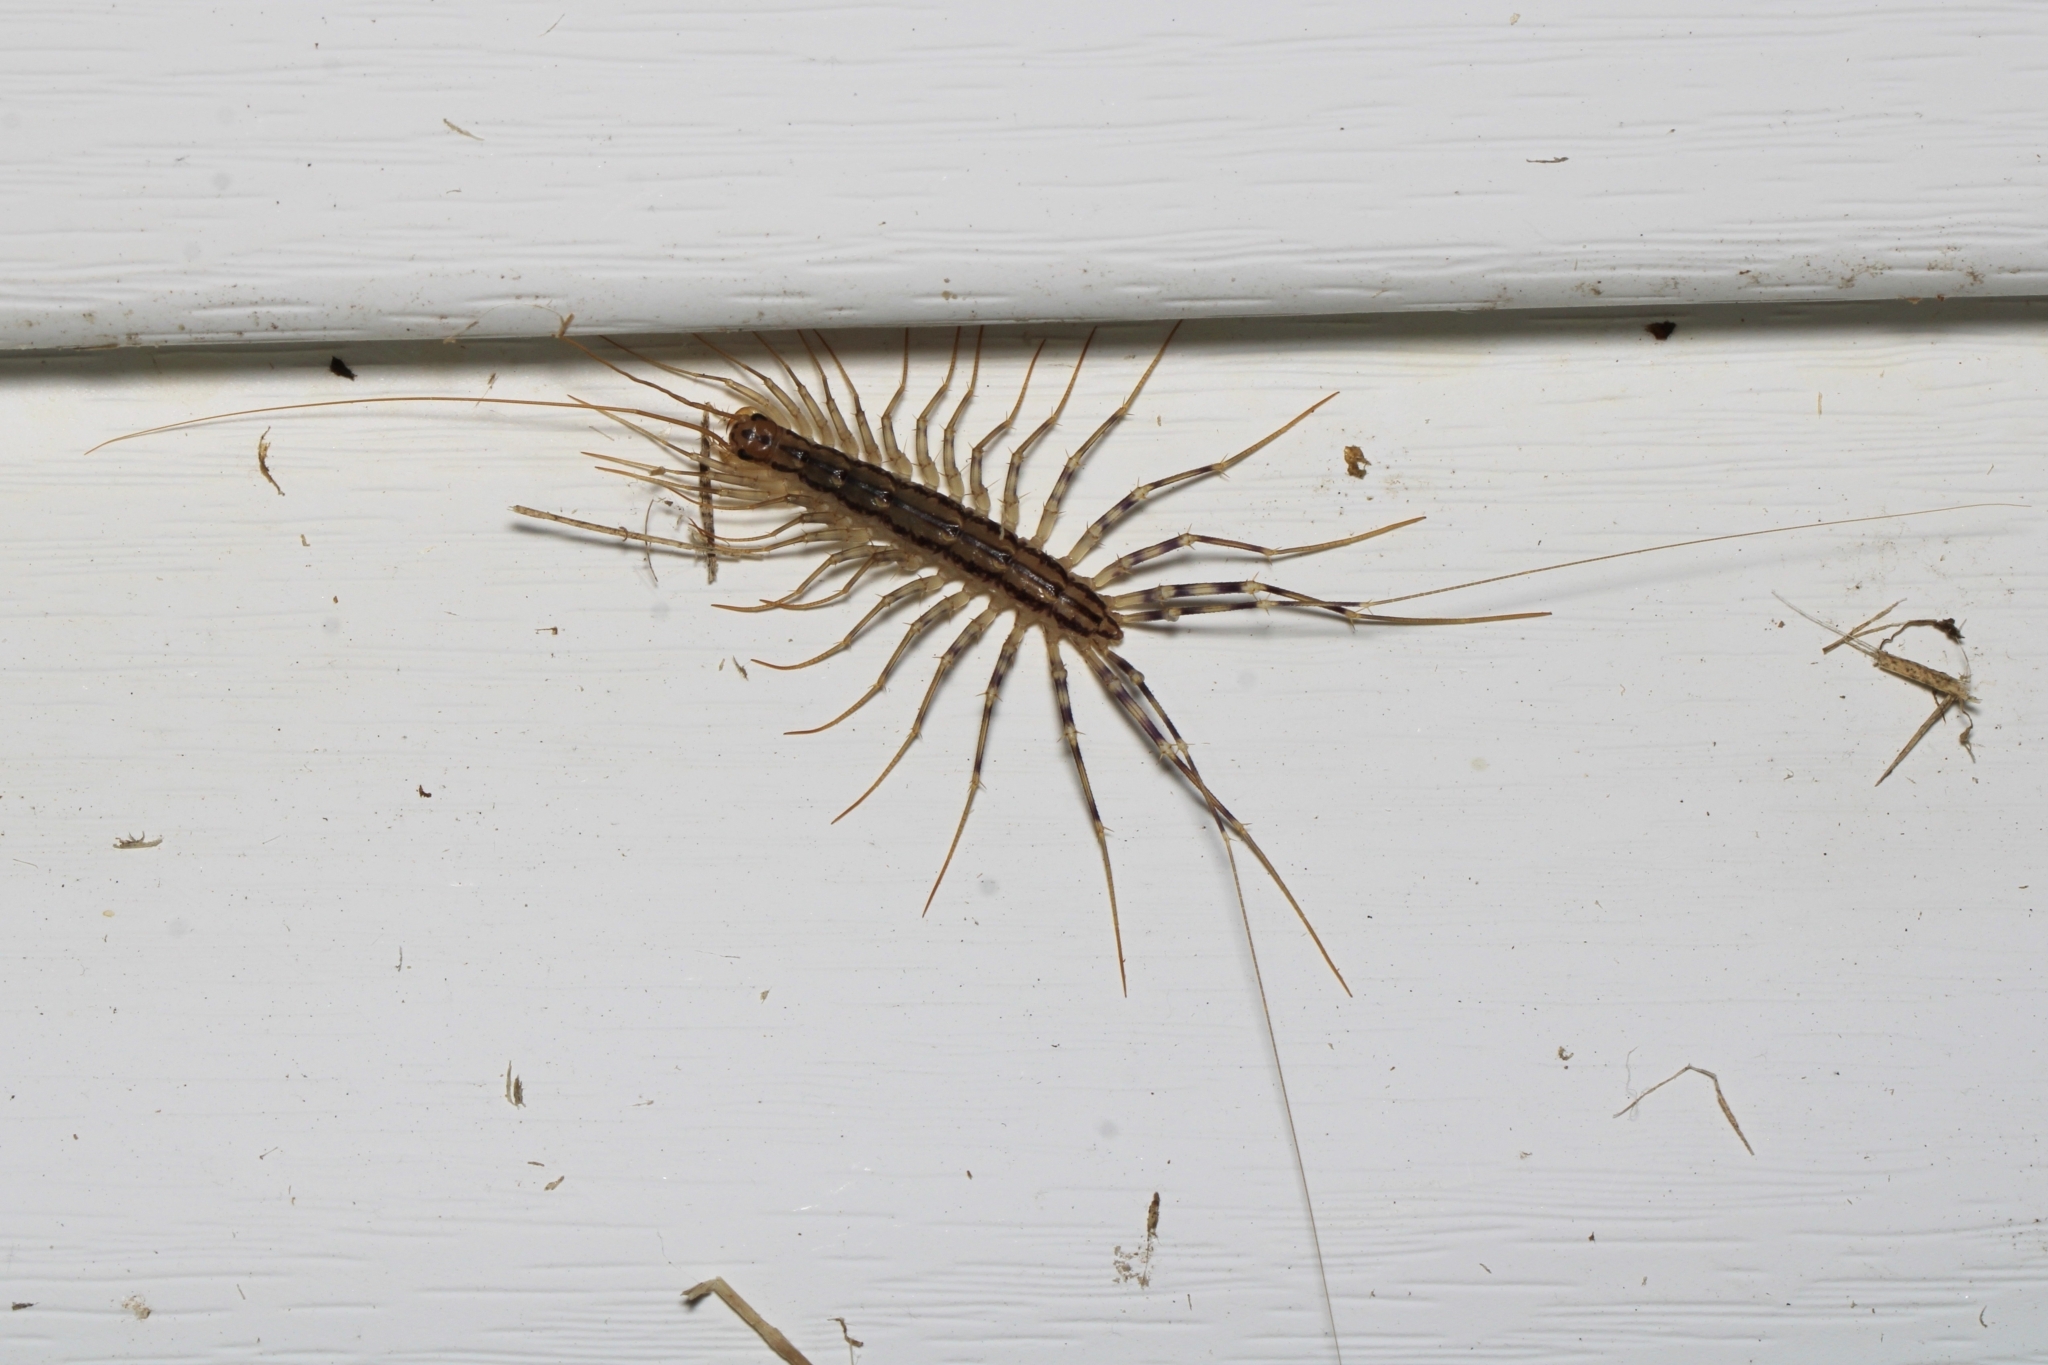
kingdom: Animalia
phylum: Arthropoda
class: Chilopoda
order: Scutigeromorpha
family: Scutigeridae
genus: Scutigera
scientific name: Scutigera coleoptrata
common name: House centipede
